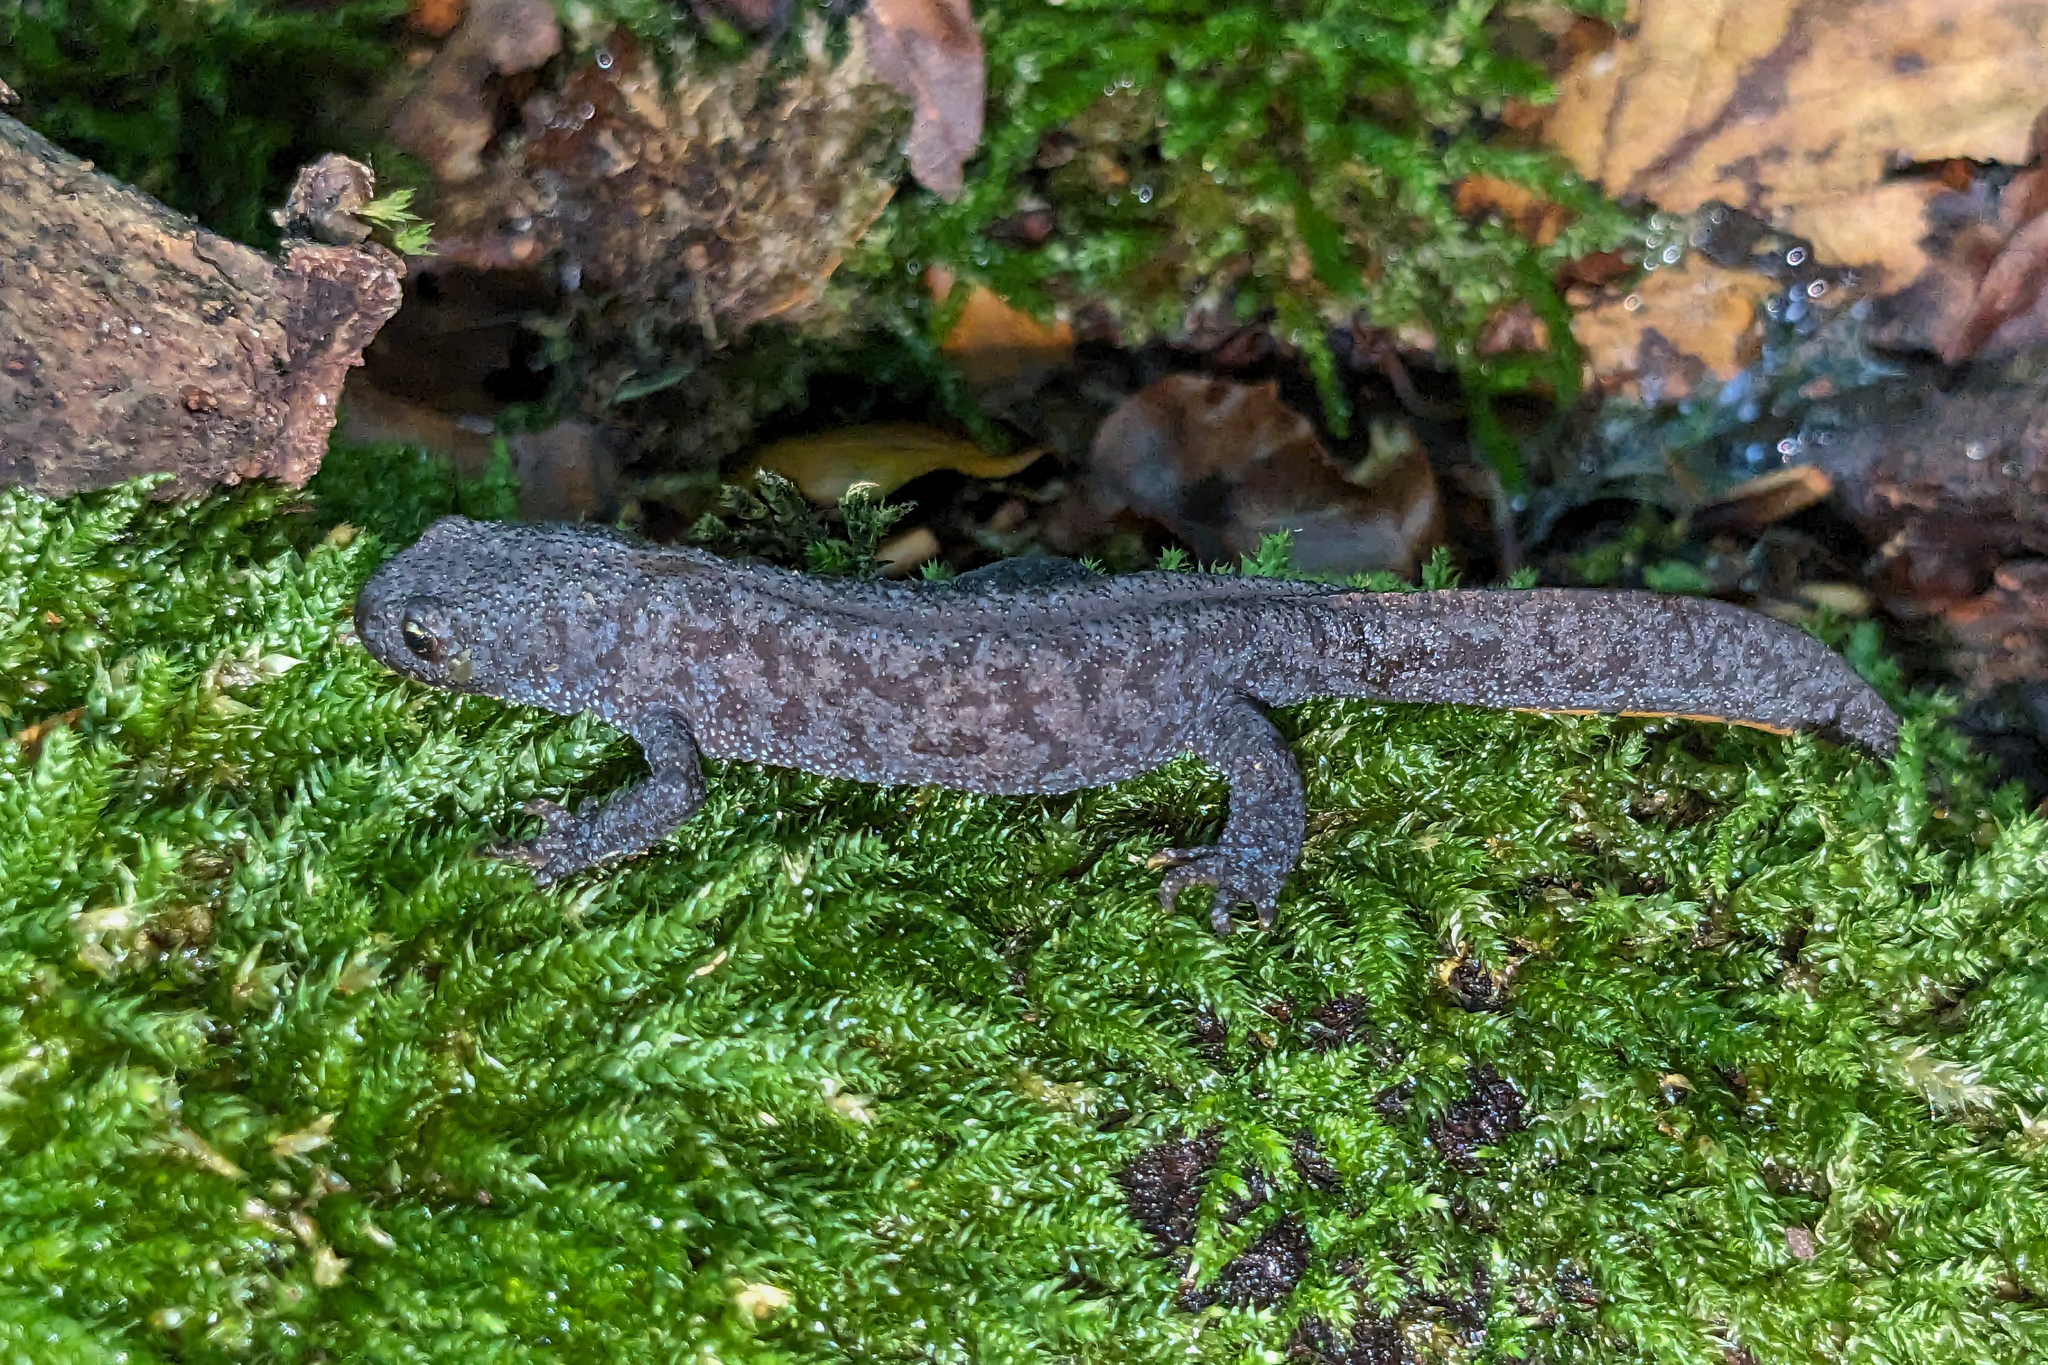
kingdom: Animalia
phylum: Chordata
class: Amphibia
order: Caudata
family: Salamandridae
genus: Ichthyosaura
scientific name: Ichthyosaura alpestris
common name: Alpine newt
